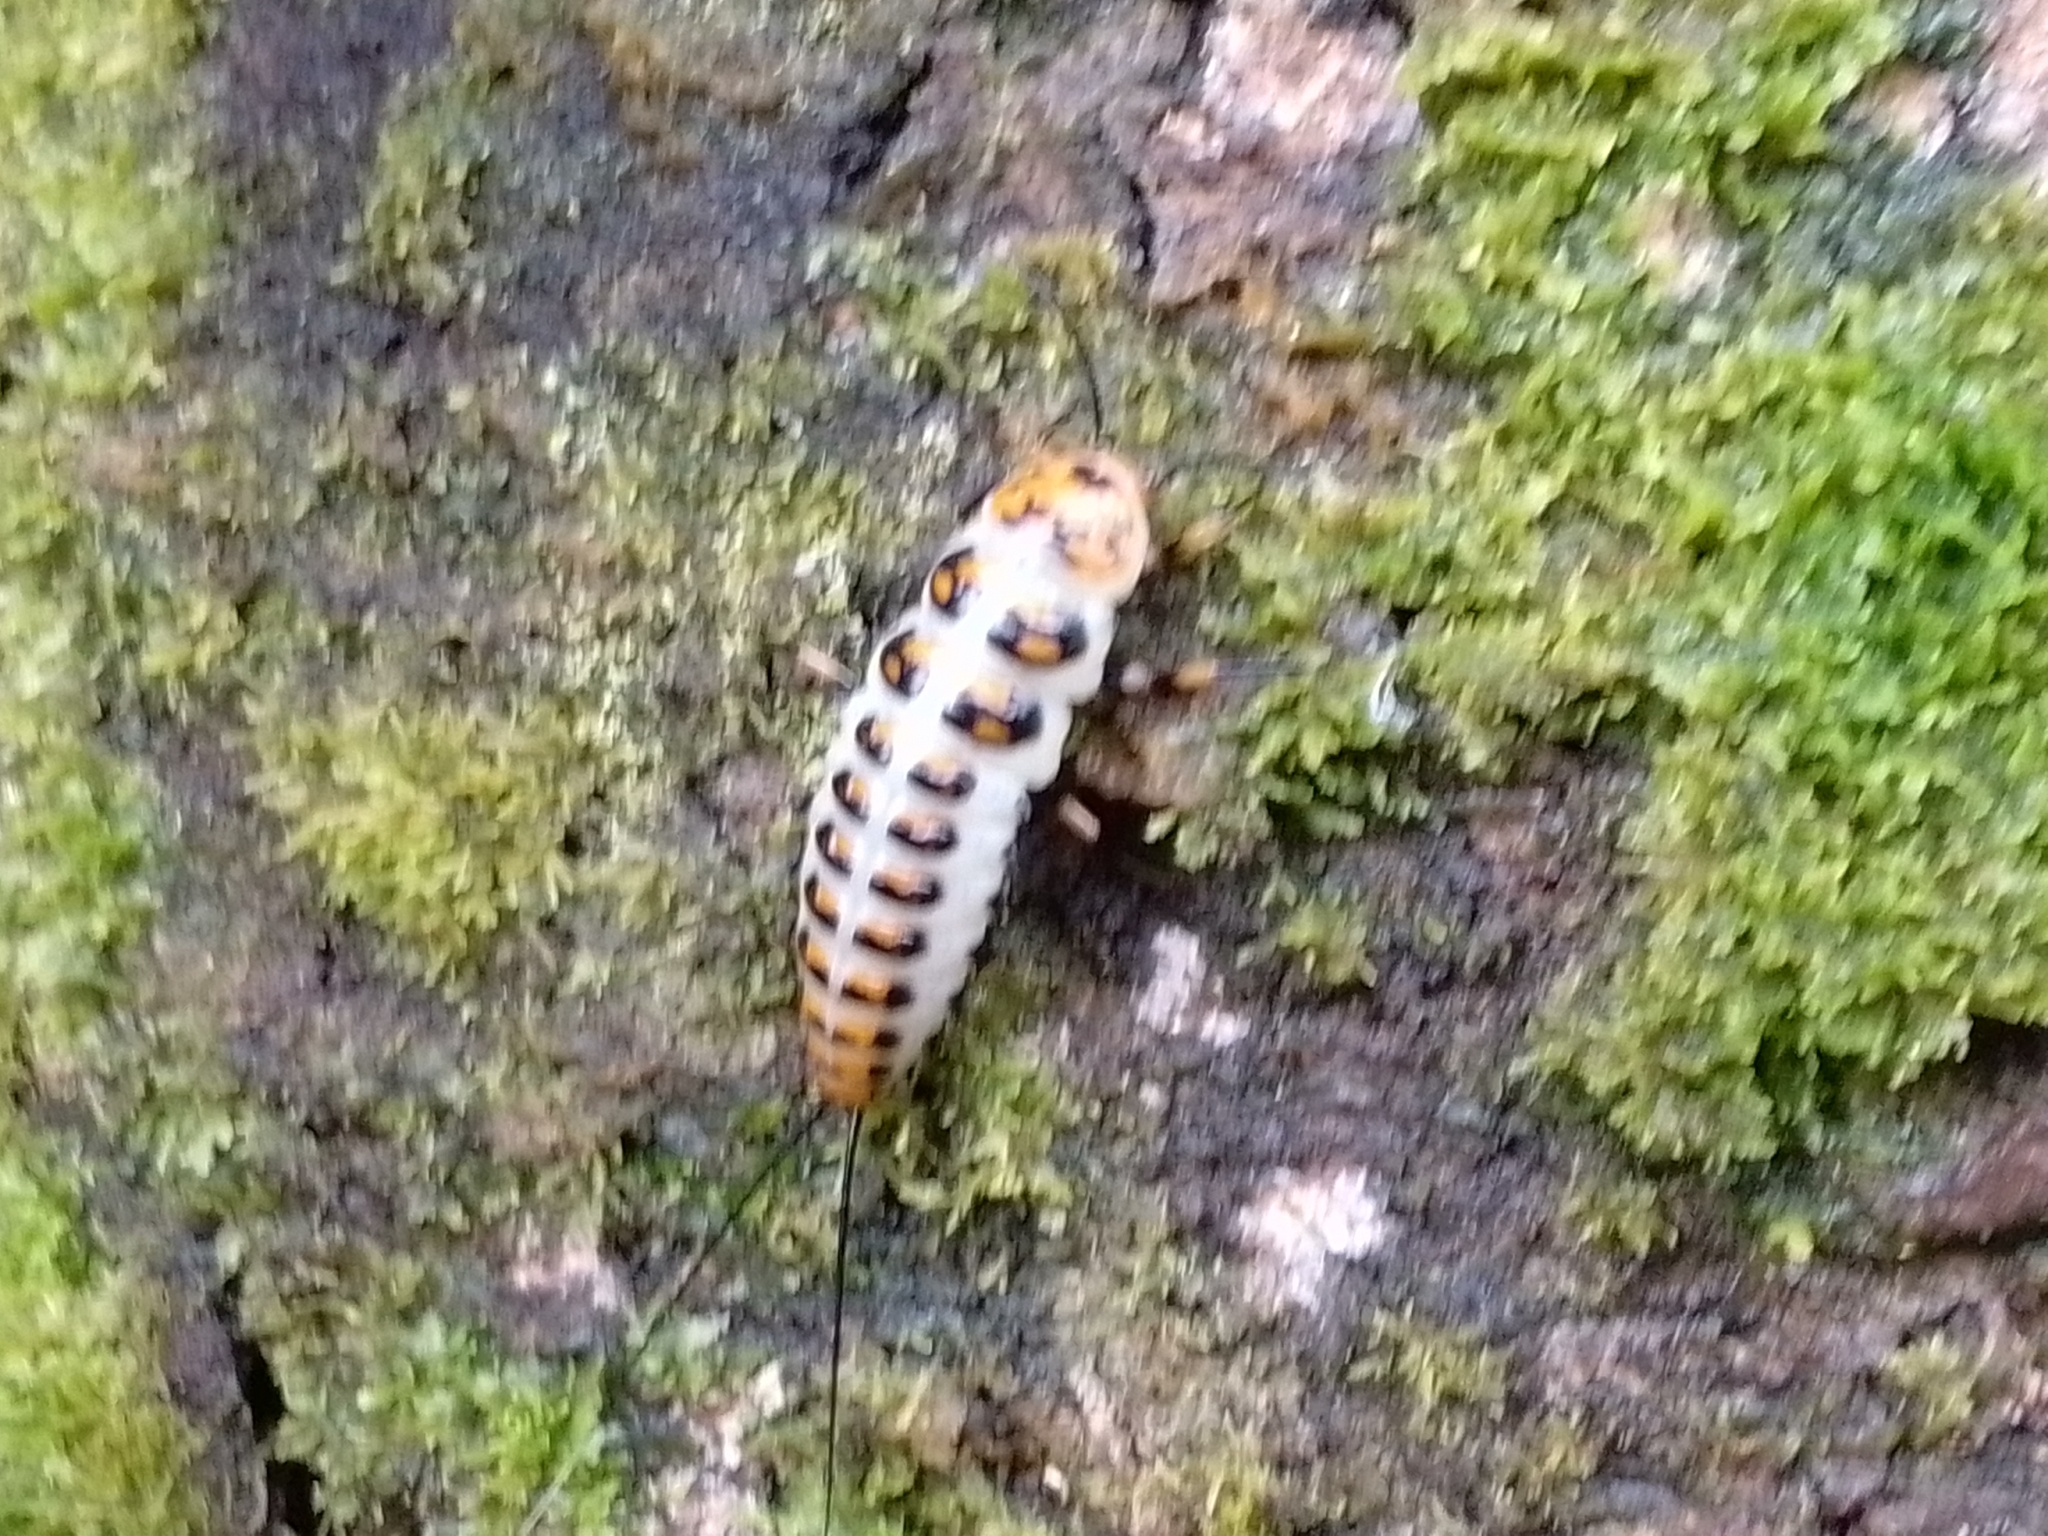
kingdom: Animalia
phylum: Arthropoda
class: Insecta
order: Coleoptera
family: Erotylidae
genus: Scaphidomorphus
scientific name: Scaphidomorphus bosci
